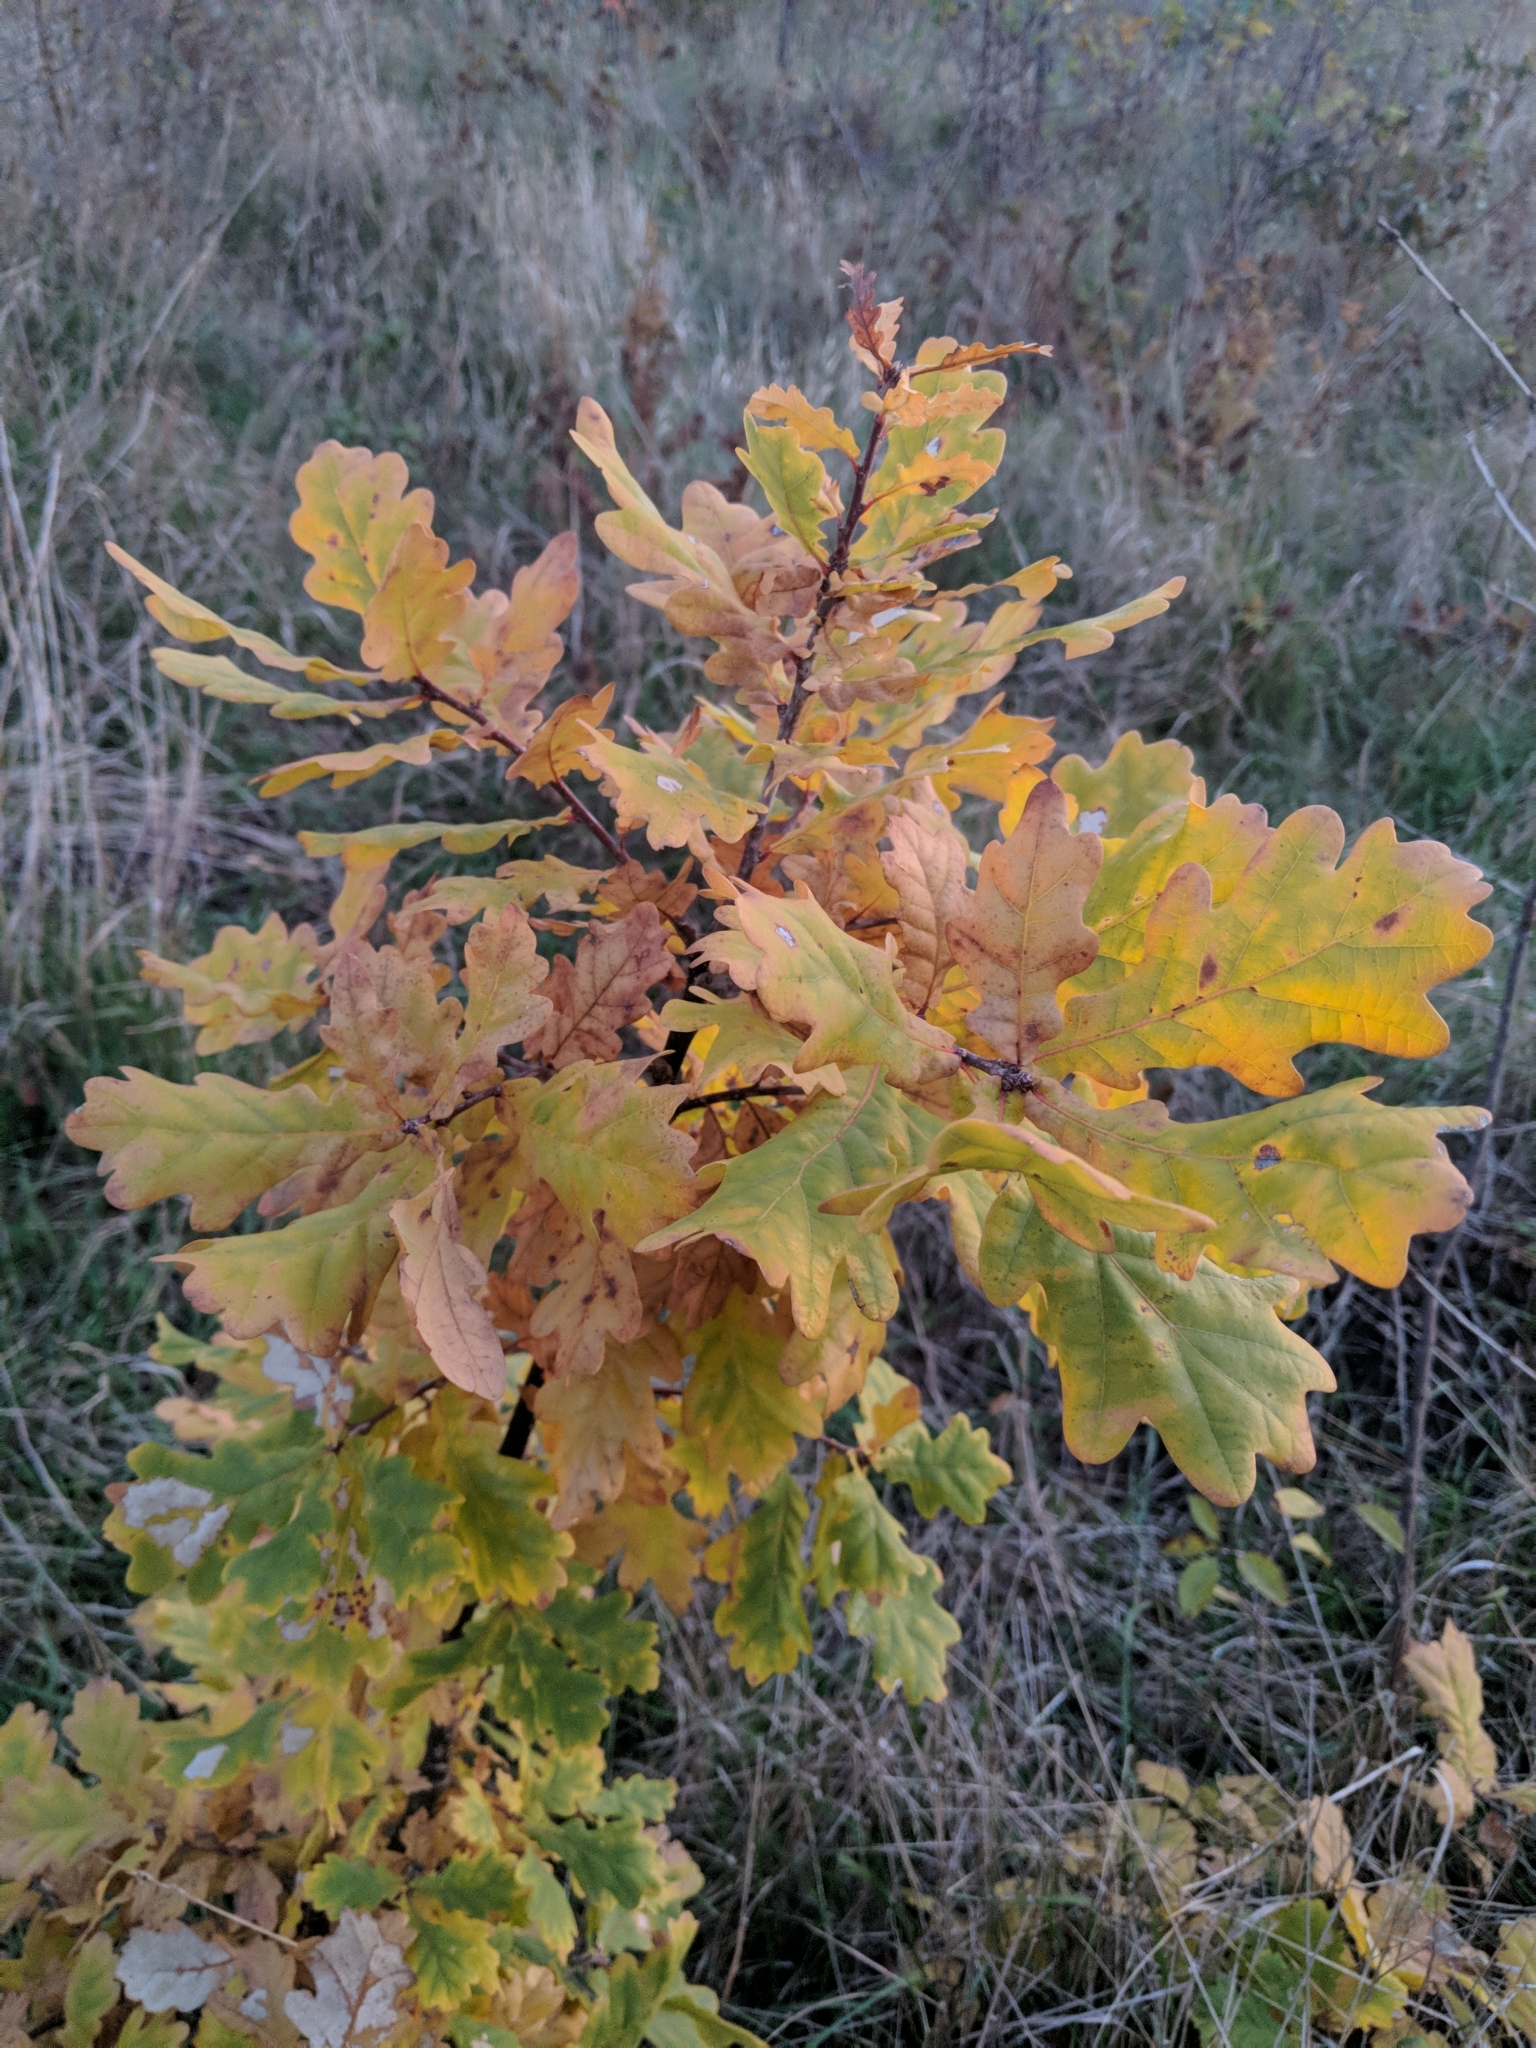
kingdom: Plantae
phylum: Tracheophyta
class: Magnoliopsida
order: Fagales
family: Fagaceae
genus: Quercus
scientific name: Quercus robur
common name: Pedunculate oak
